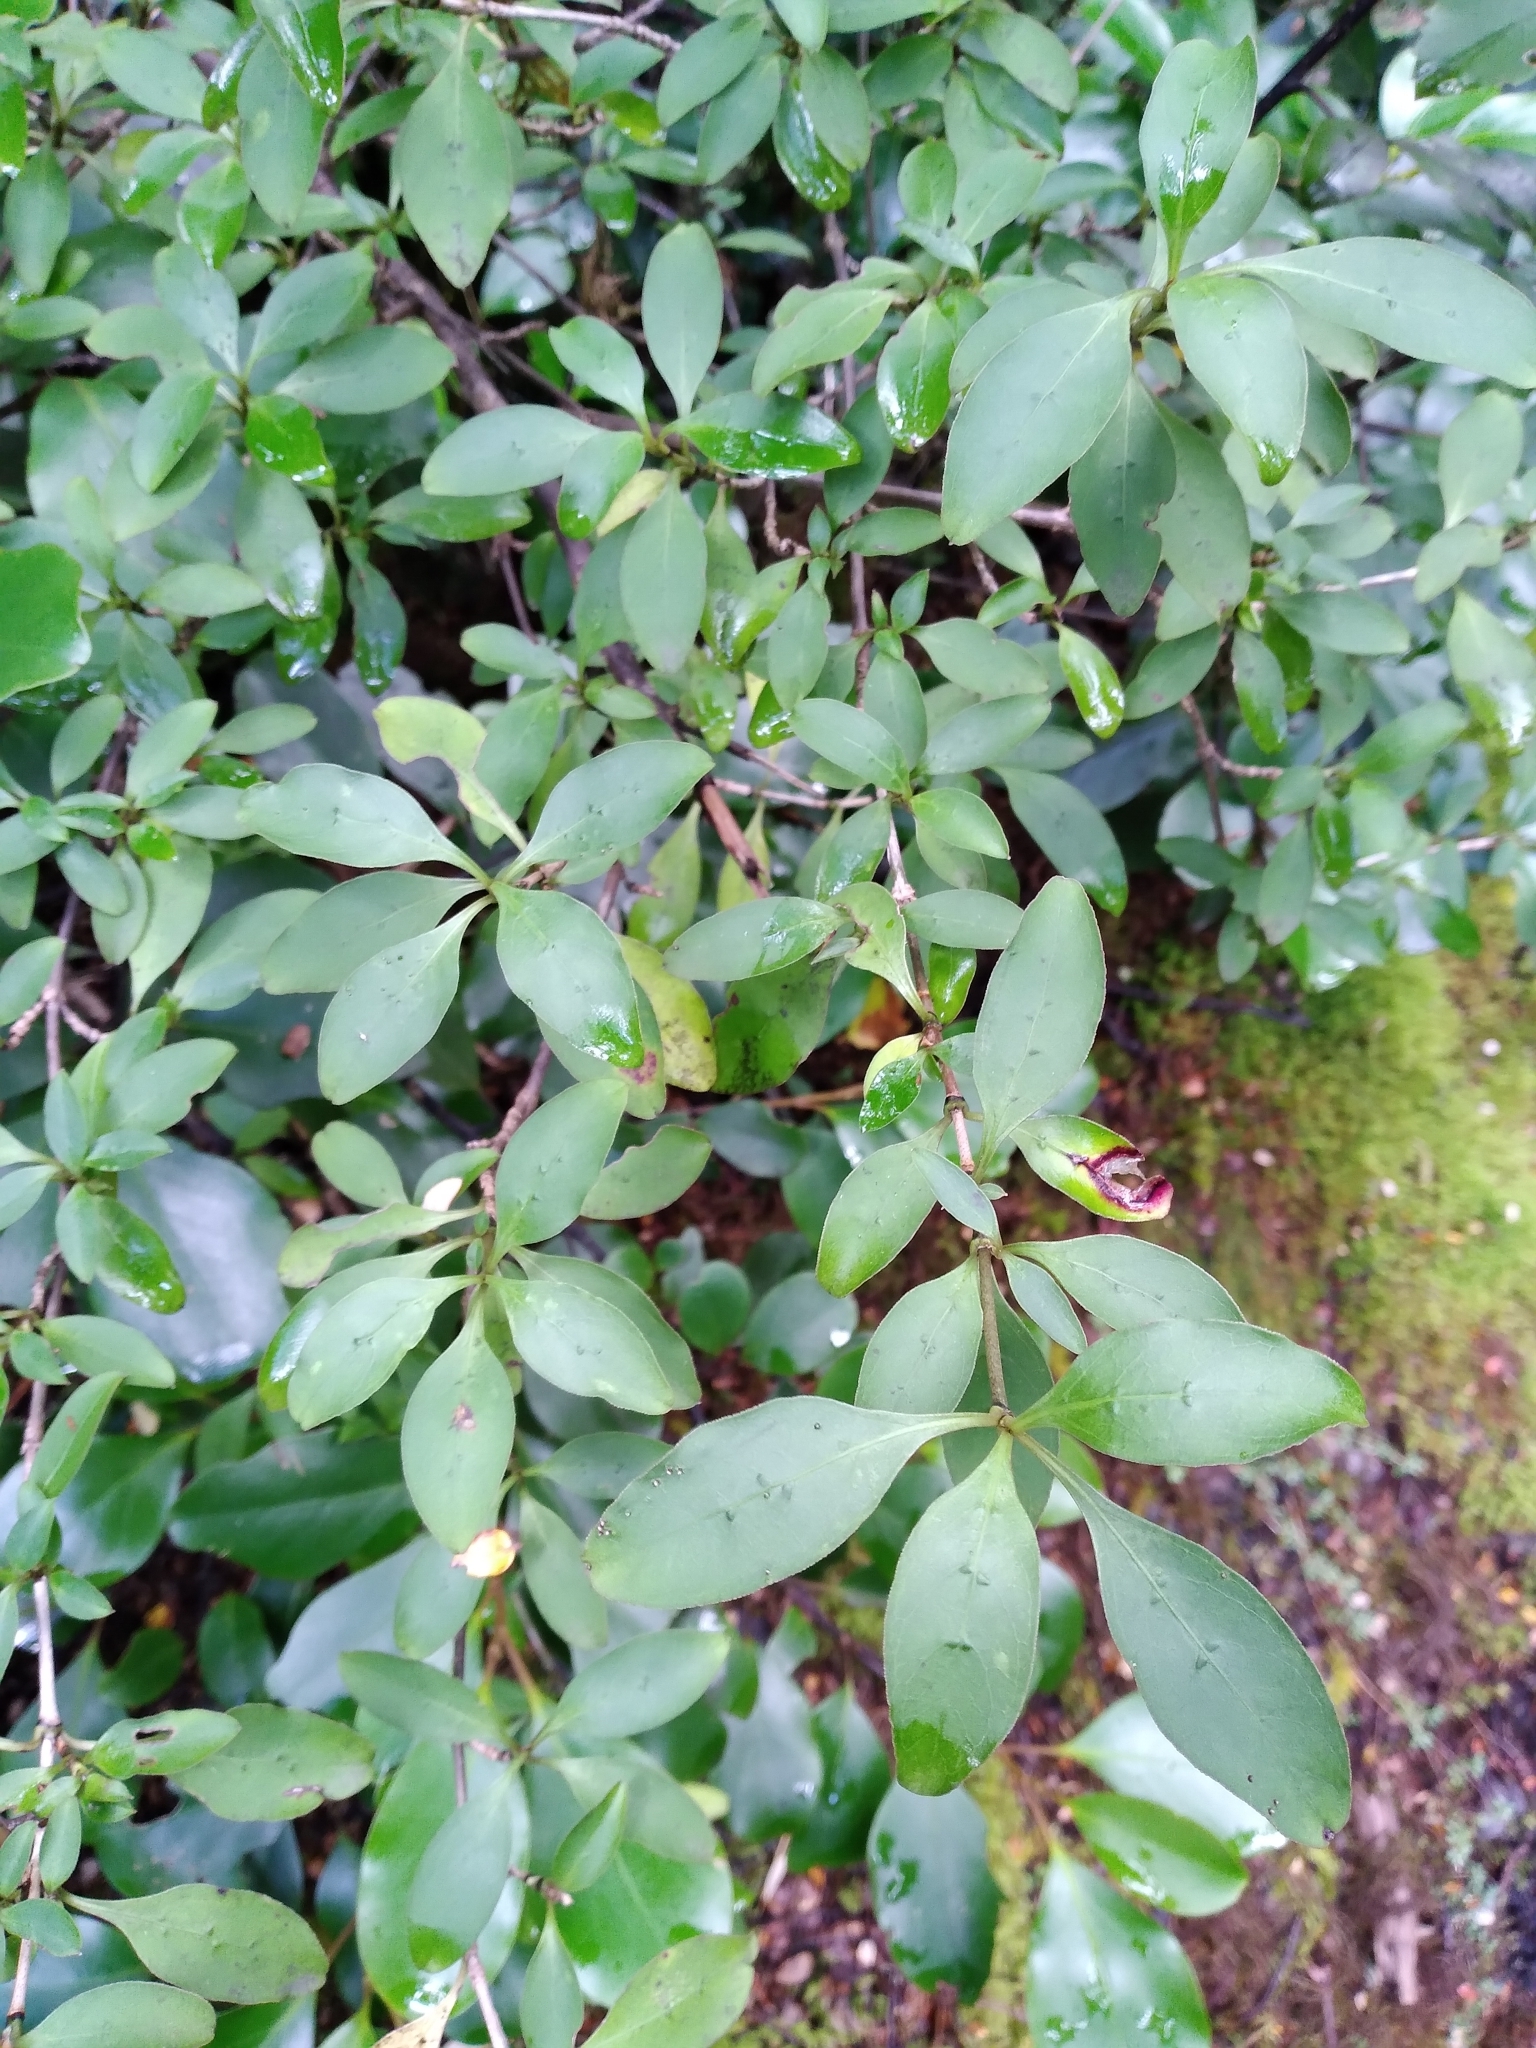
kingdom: Plantae
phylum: Tracheophyta
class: Magnoliopsida
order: Gentianales
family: Rubiaceae
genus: Coprosma
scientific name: Coprosma foetidissima
